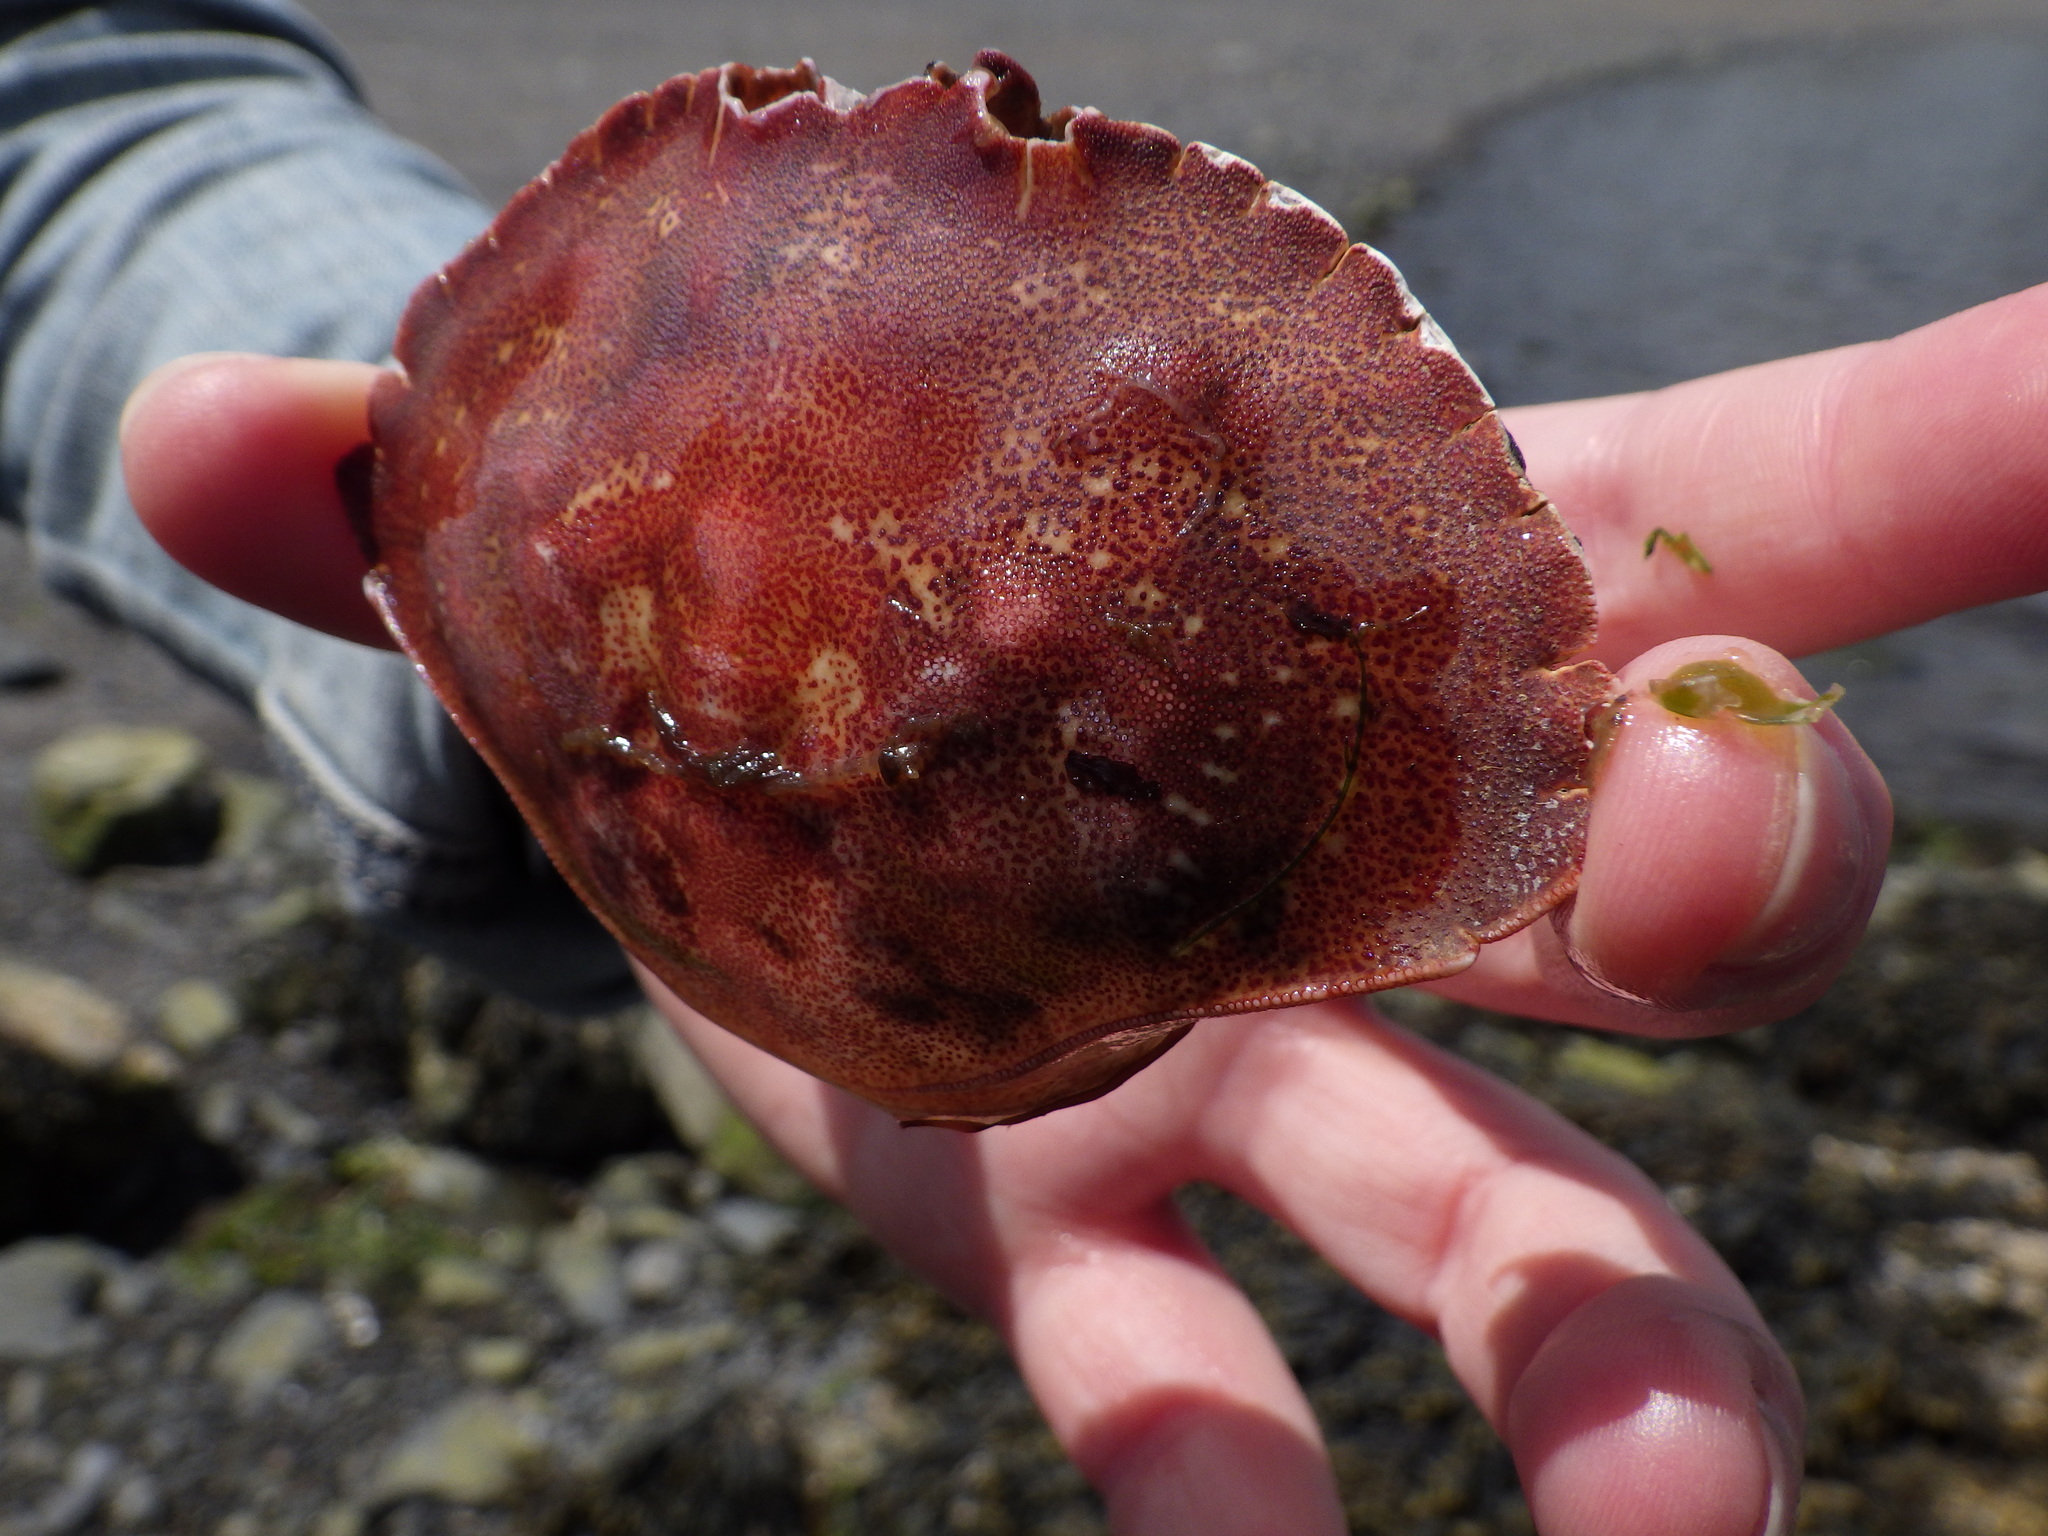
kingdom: Animalia
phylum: Arthropoda
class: Malacostraca
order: Decapoda
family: Cancridae
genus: Cancer
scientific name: Cancer irroratus
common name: Atlantic rock crab
